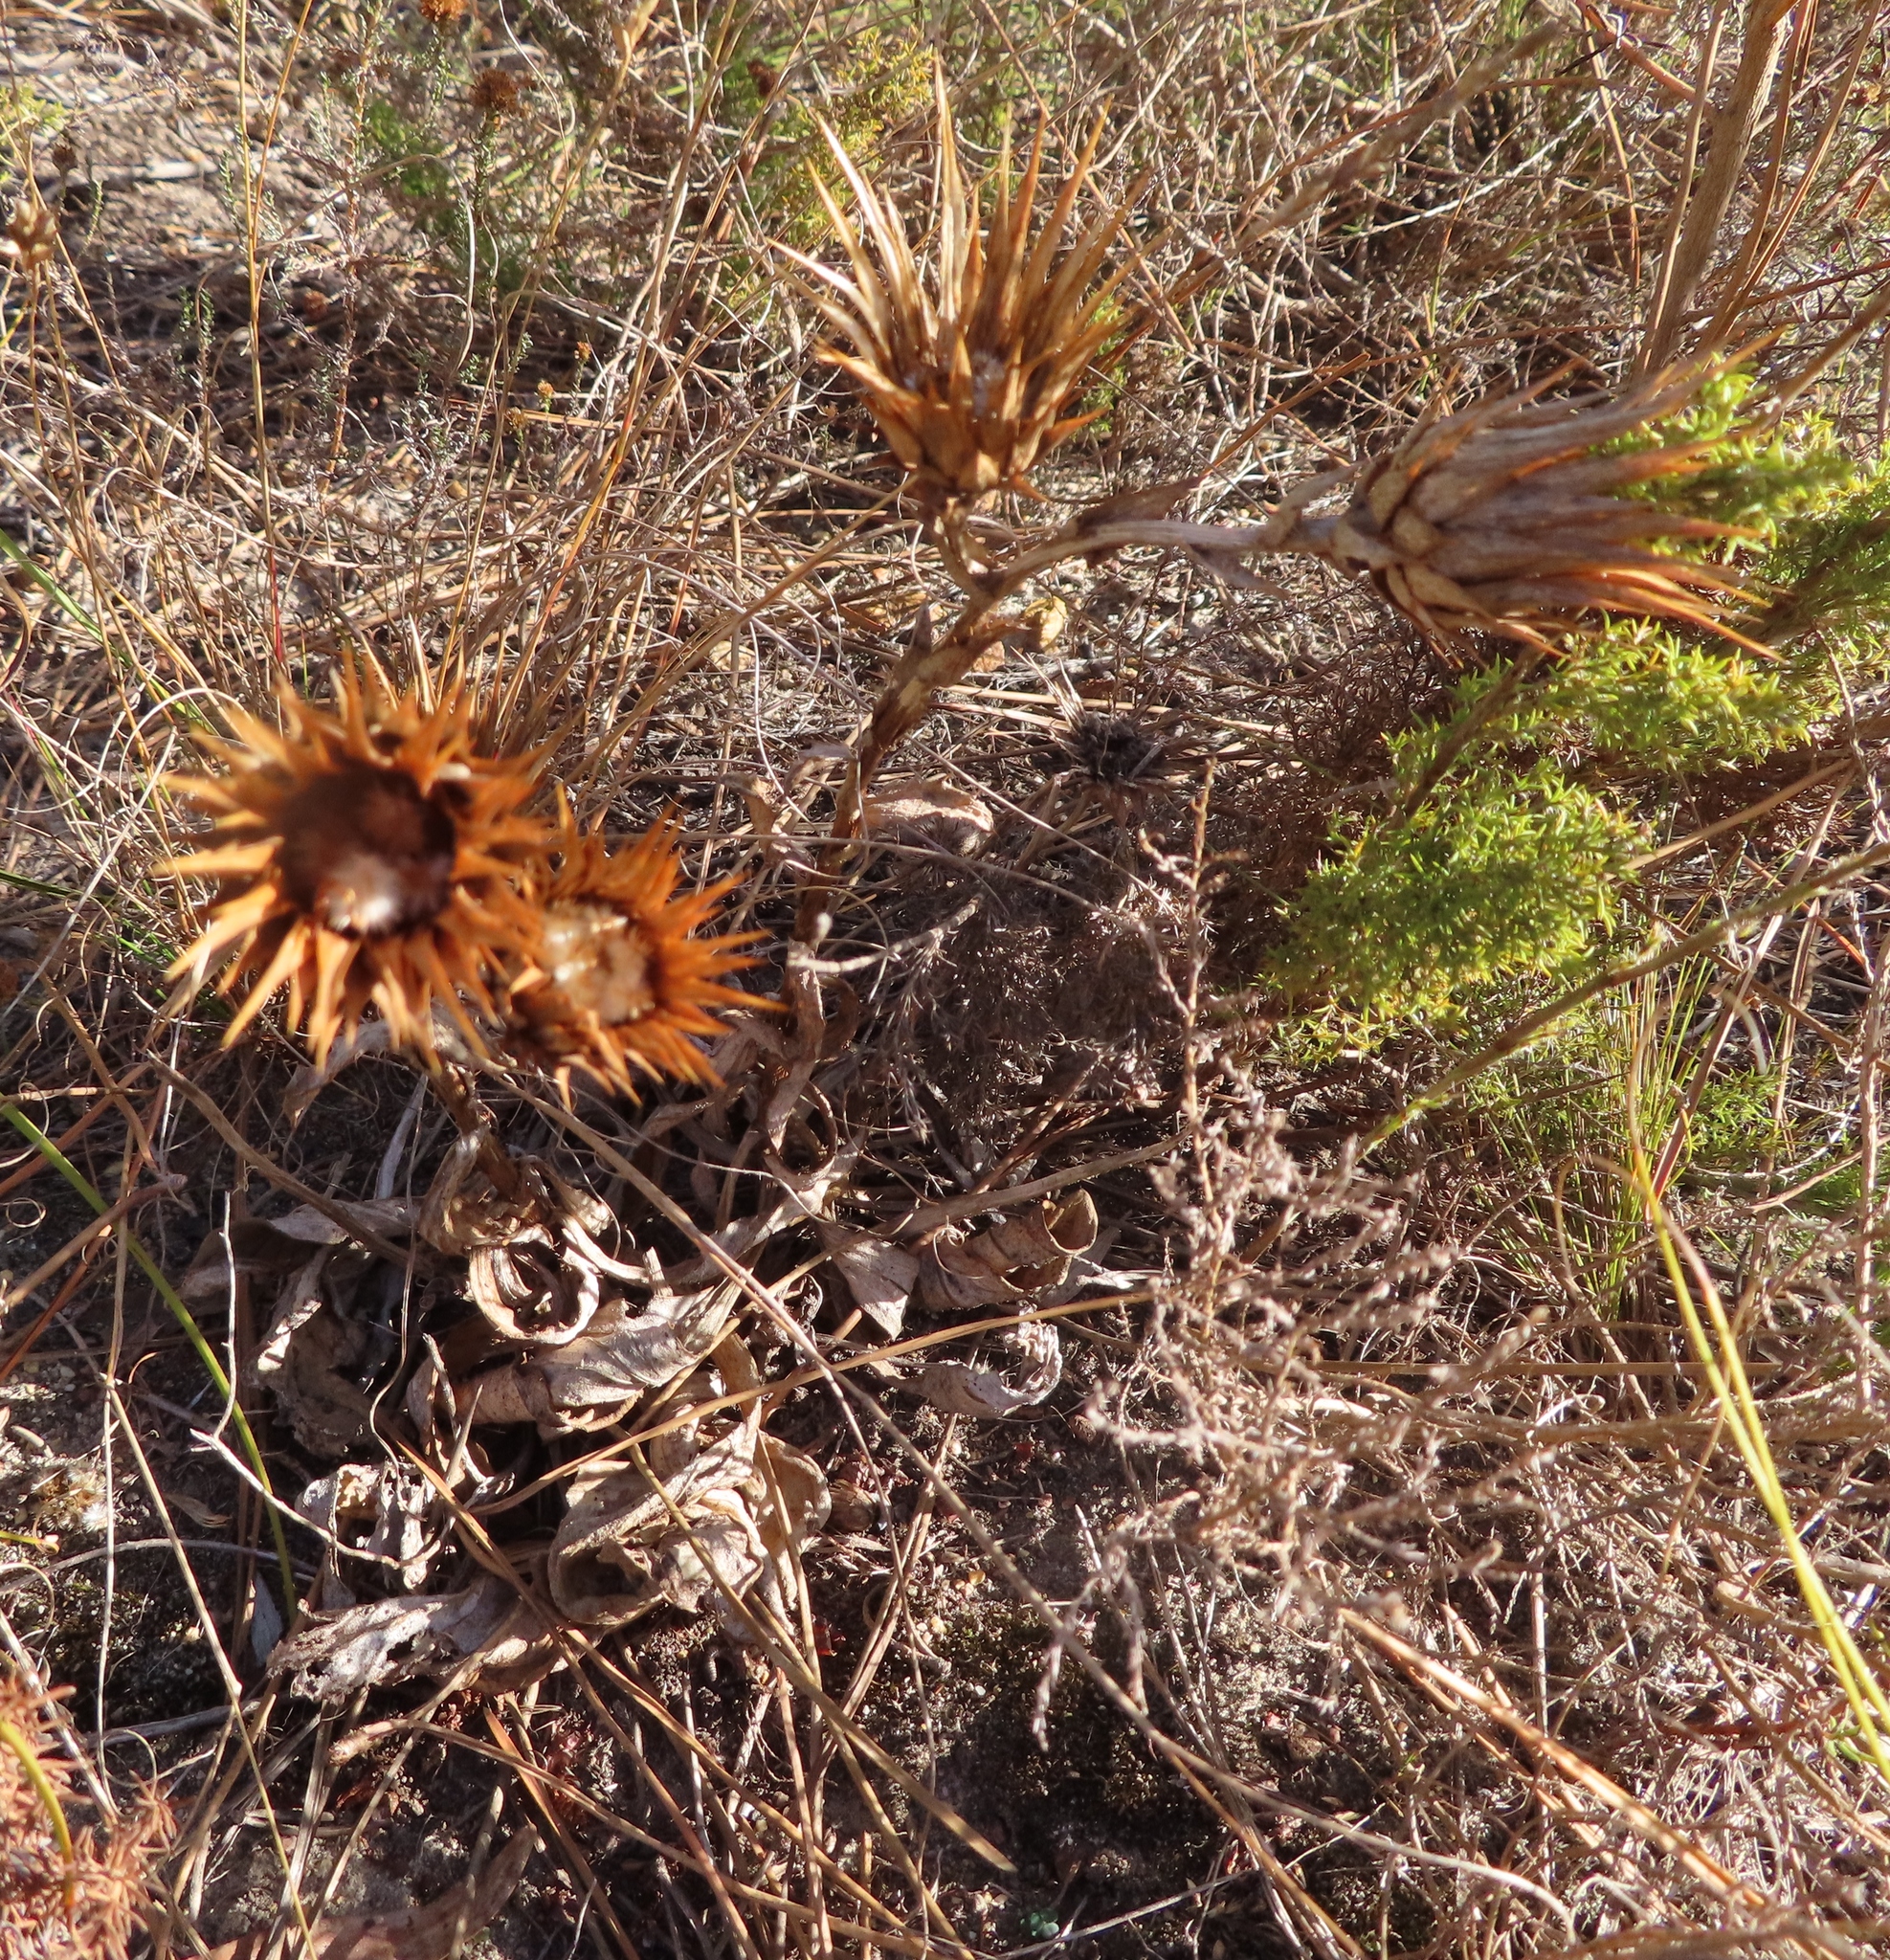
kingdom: Plantae
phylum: Tracheophyta
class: Magnoliopsida
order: Asterales
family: Asteraceae
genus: Berkheya
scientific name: Berkheya herbacea
